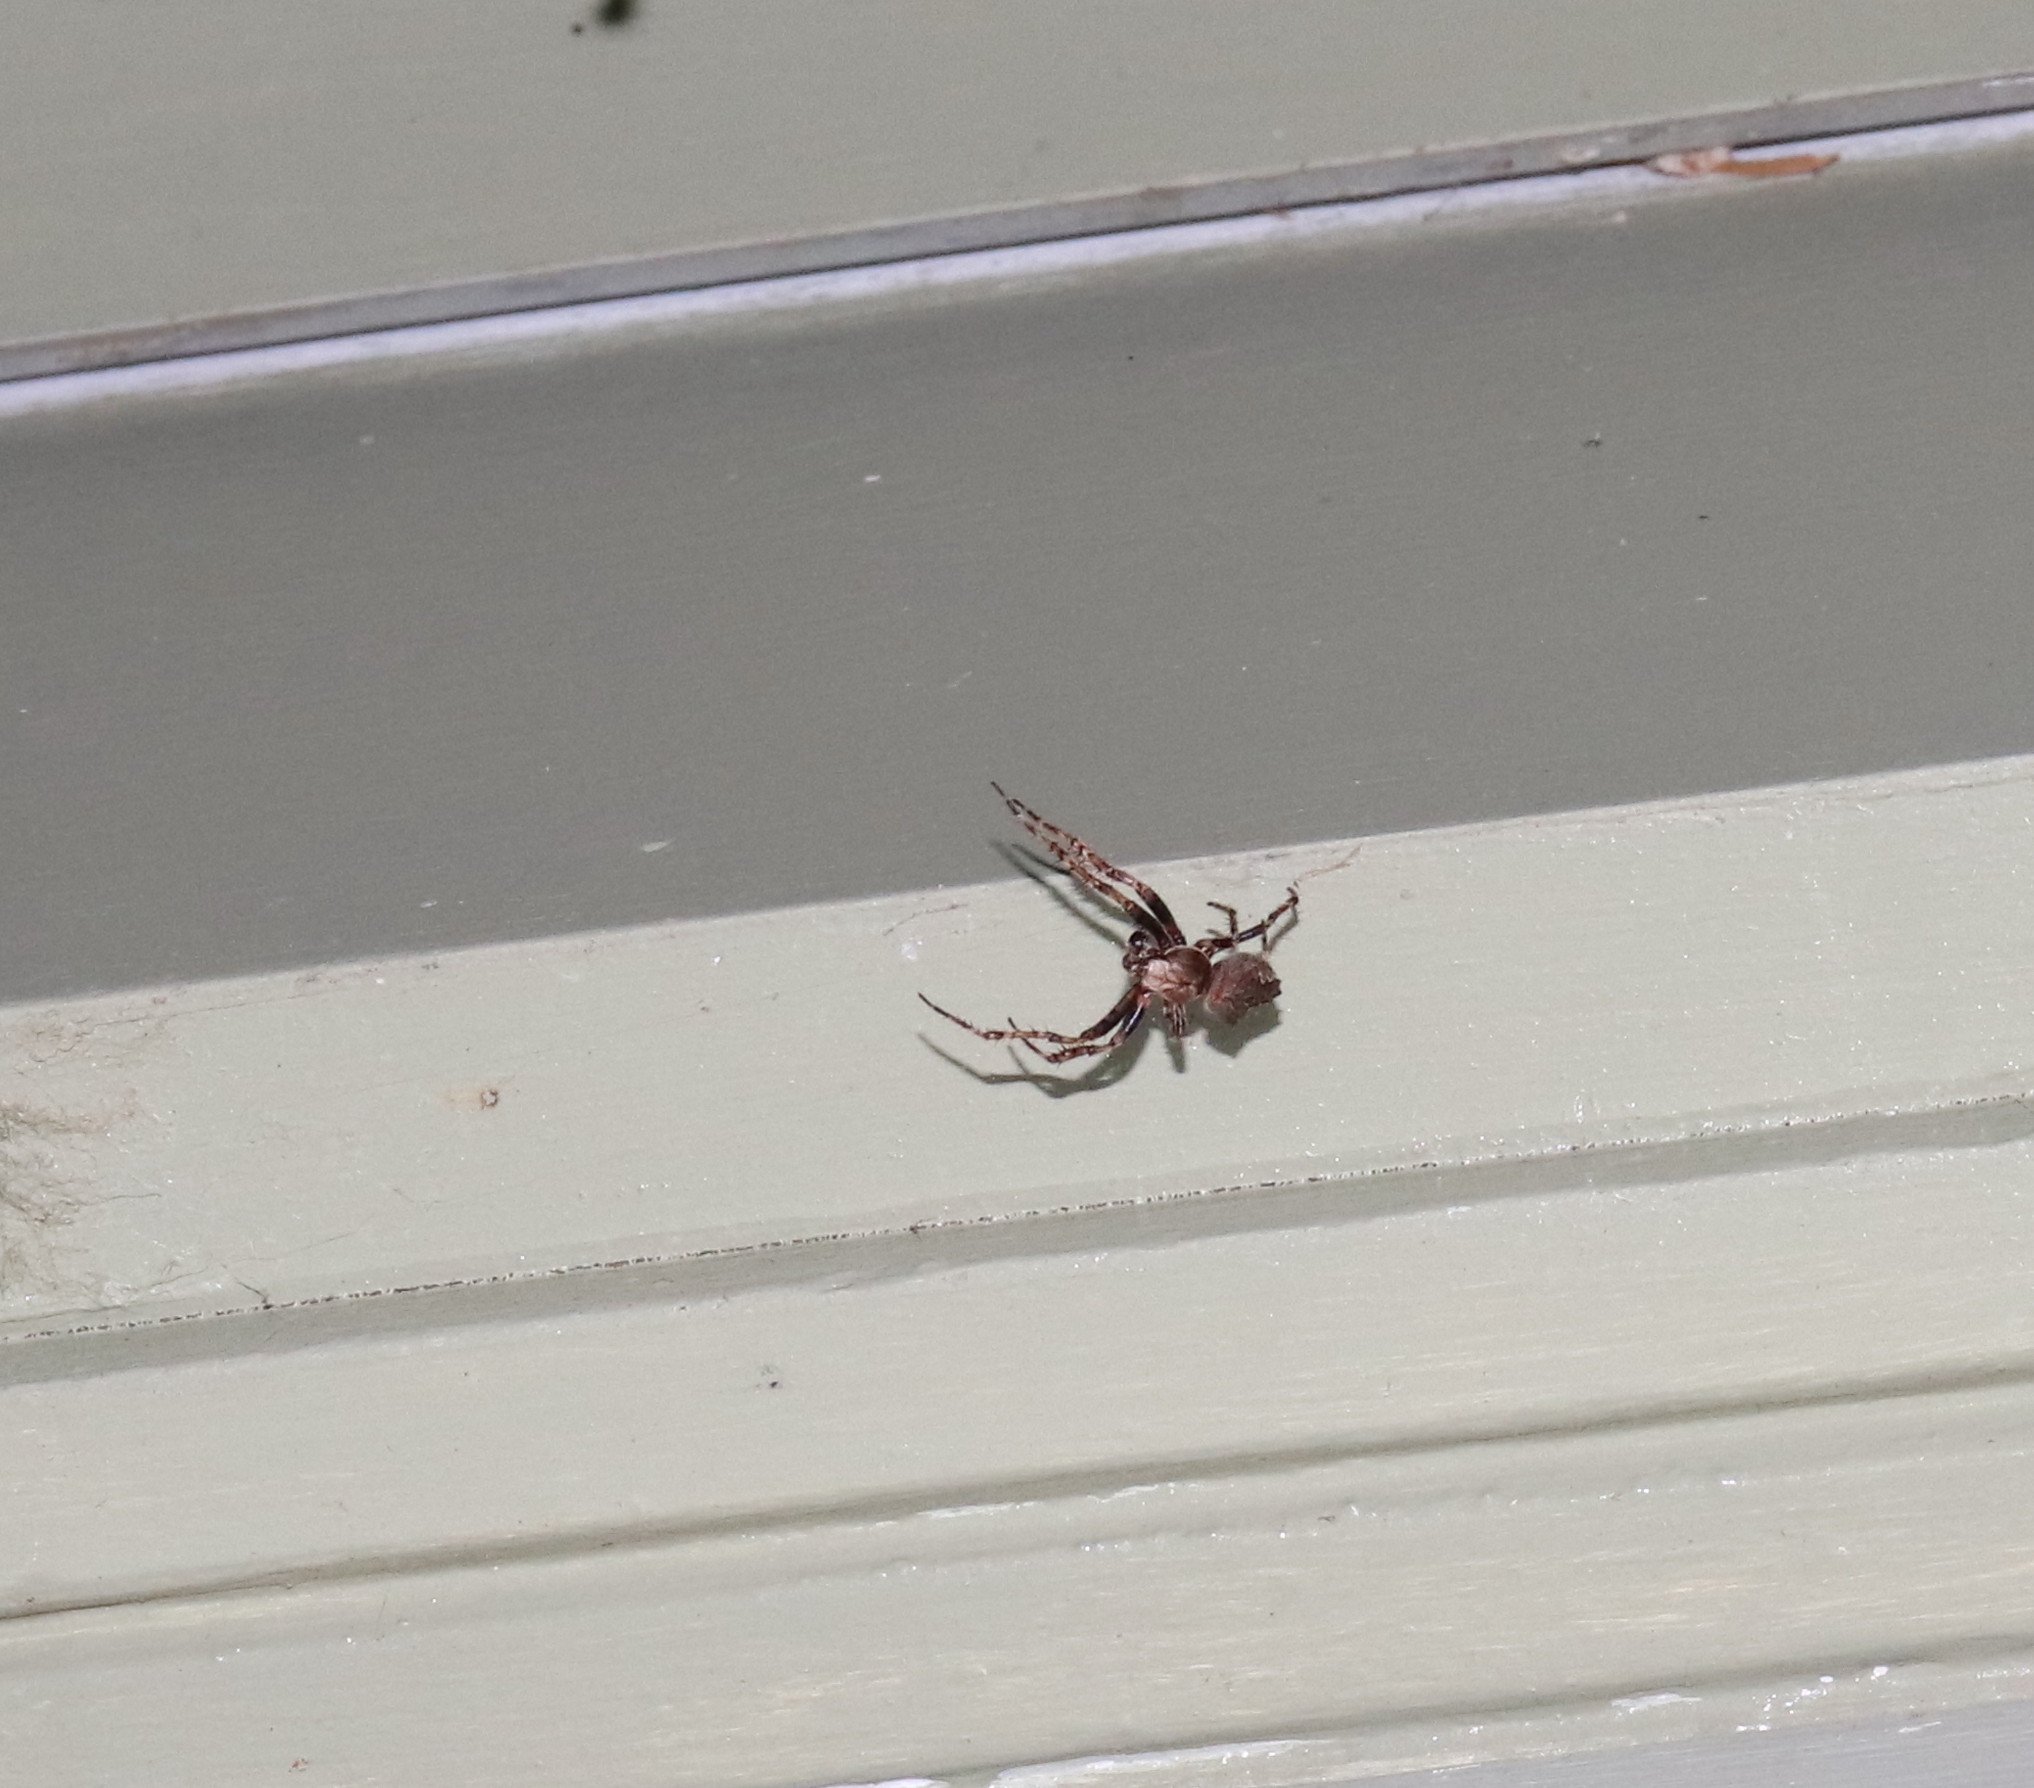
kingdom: Animalia
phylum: Arthropoda
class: Arachnida
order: Araneae
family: Araneidae
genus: Eriophora
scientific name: Eriophora pustulosa
